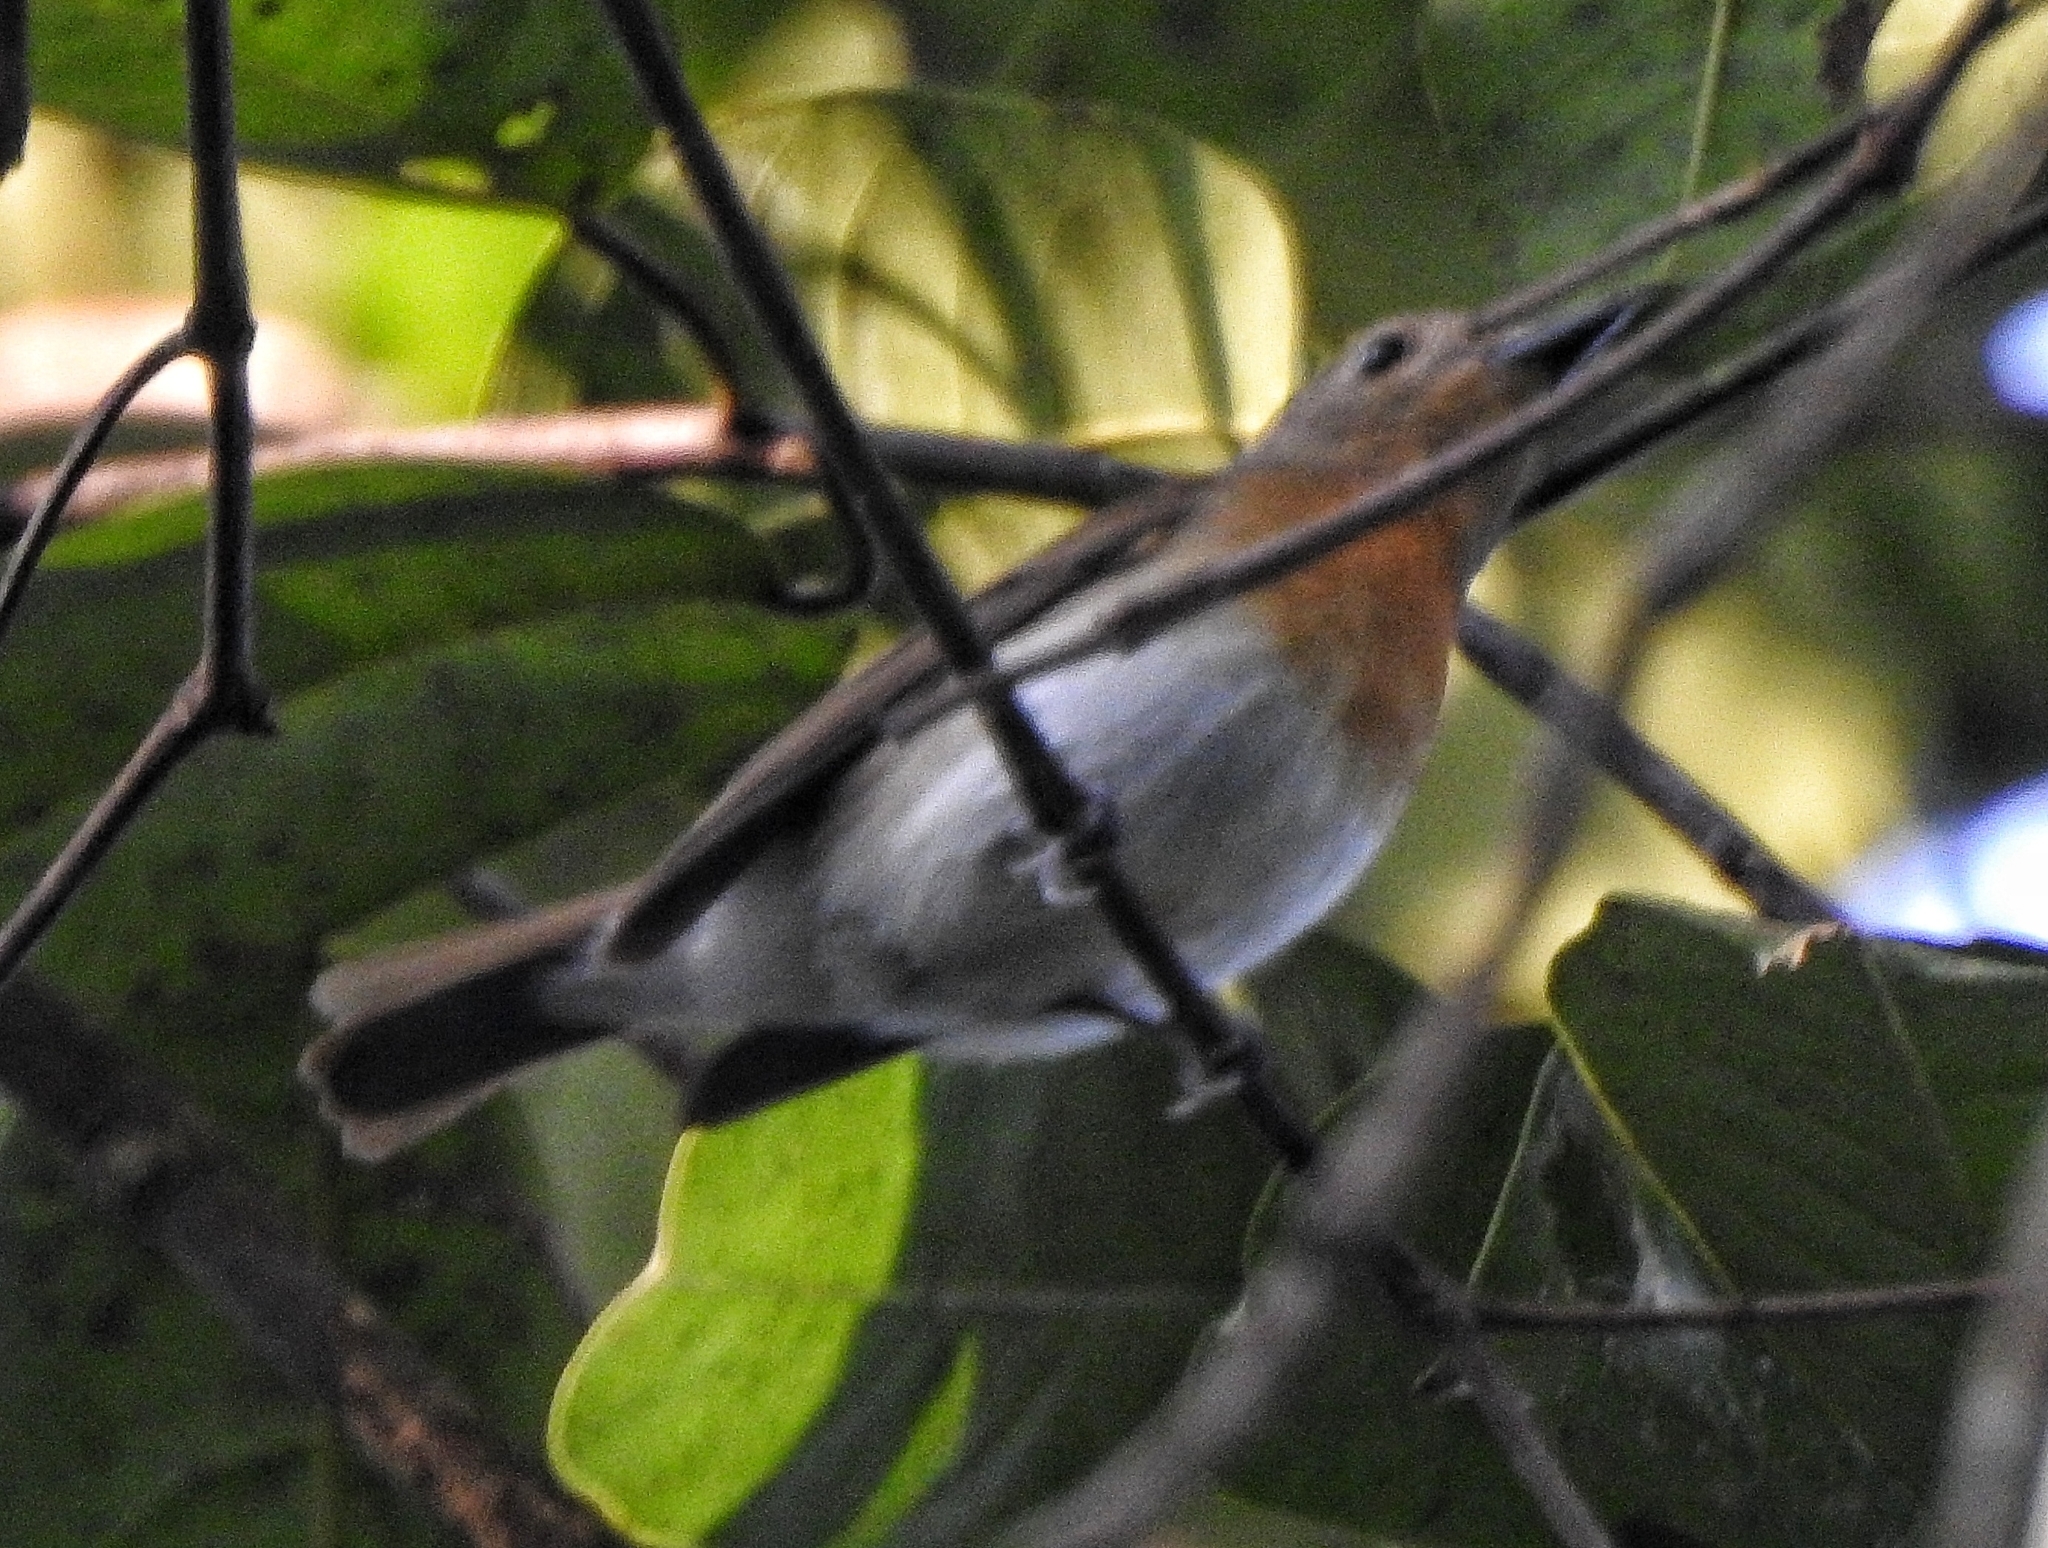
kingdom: Animalia
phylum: Chordata
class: Aves
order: Passeriformes
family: Muscicapidae
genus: Cyornis
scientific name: Cyornis rubeculoides
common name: Blue-throated blue flycatcher
